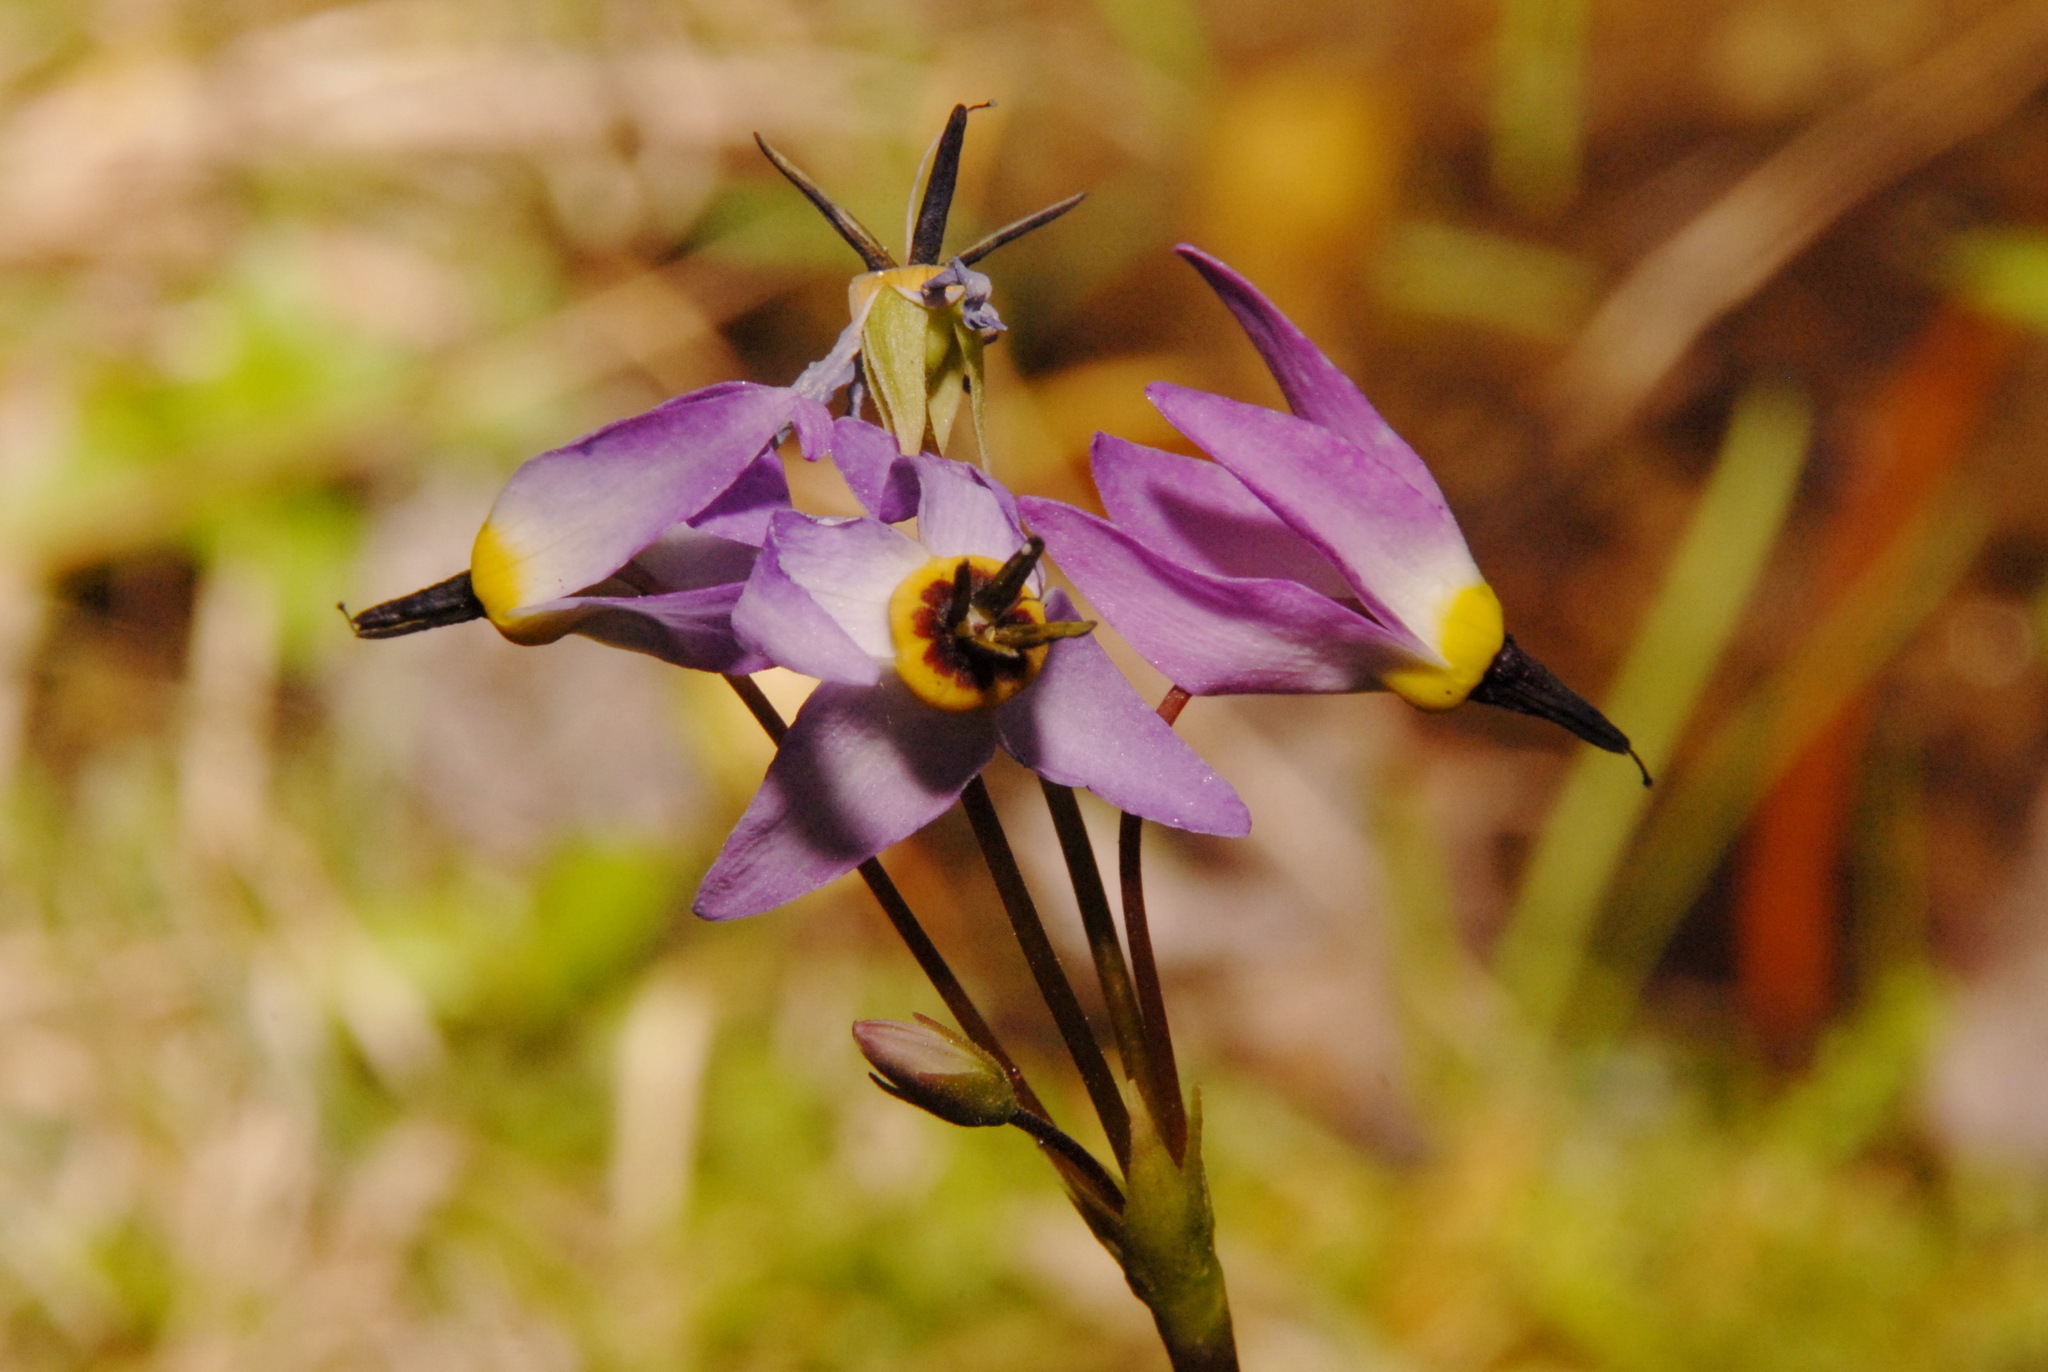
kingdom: Plantae
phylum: Tracheophyta
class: Magnoliopsida
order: Ericales
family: Primulaceae
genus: Dodecatheon
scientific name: Dodecatheon alpinum
